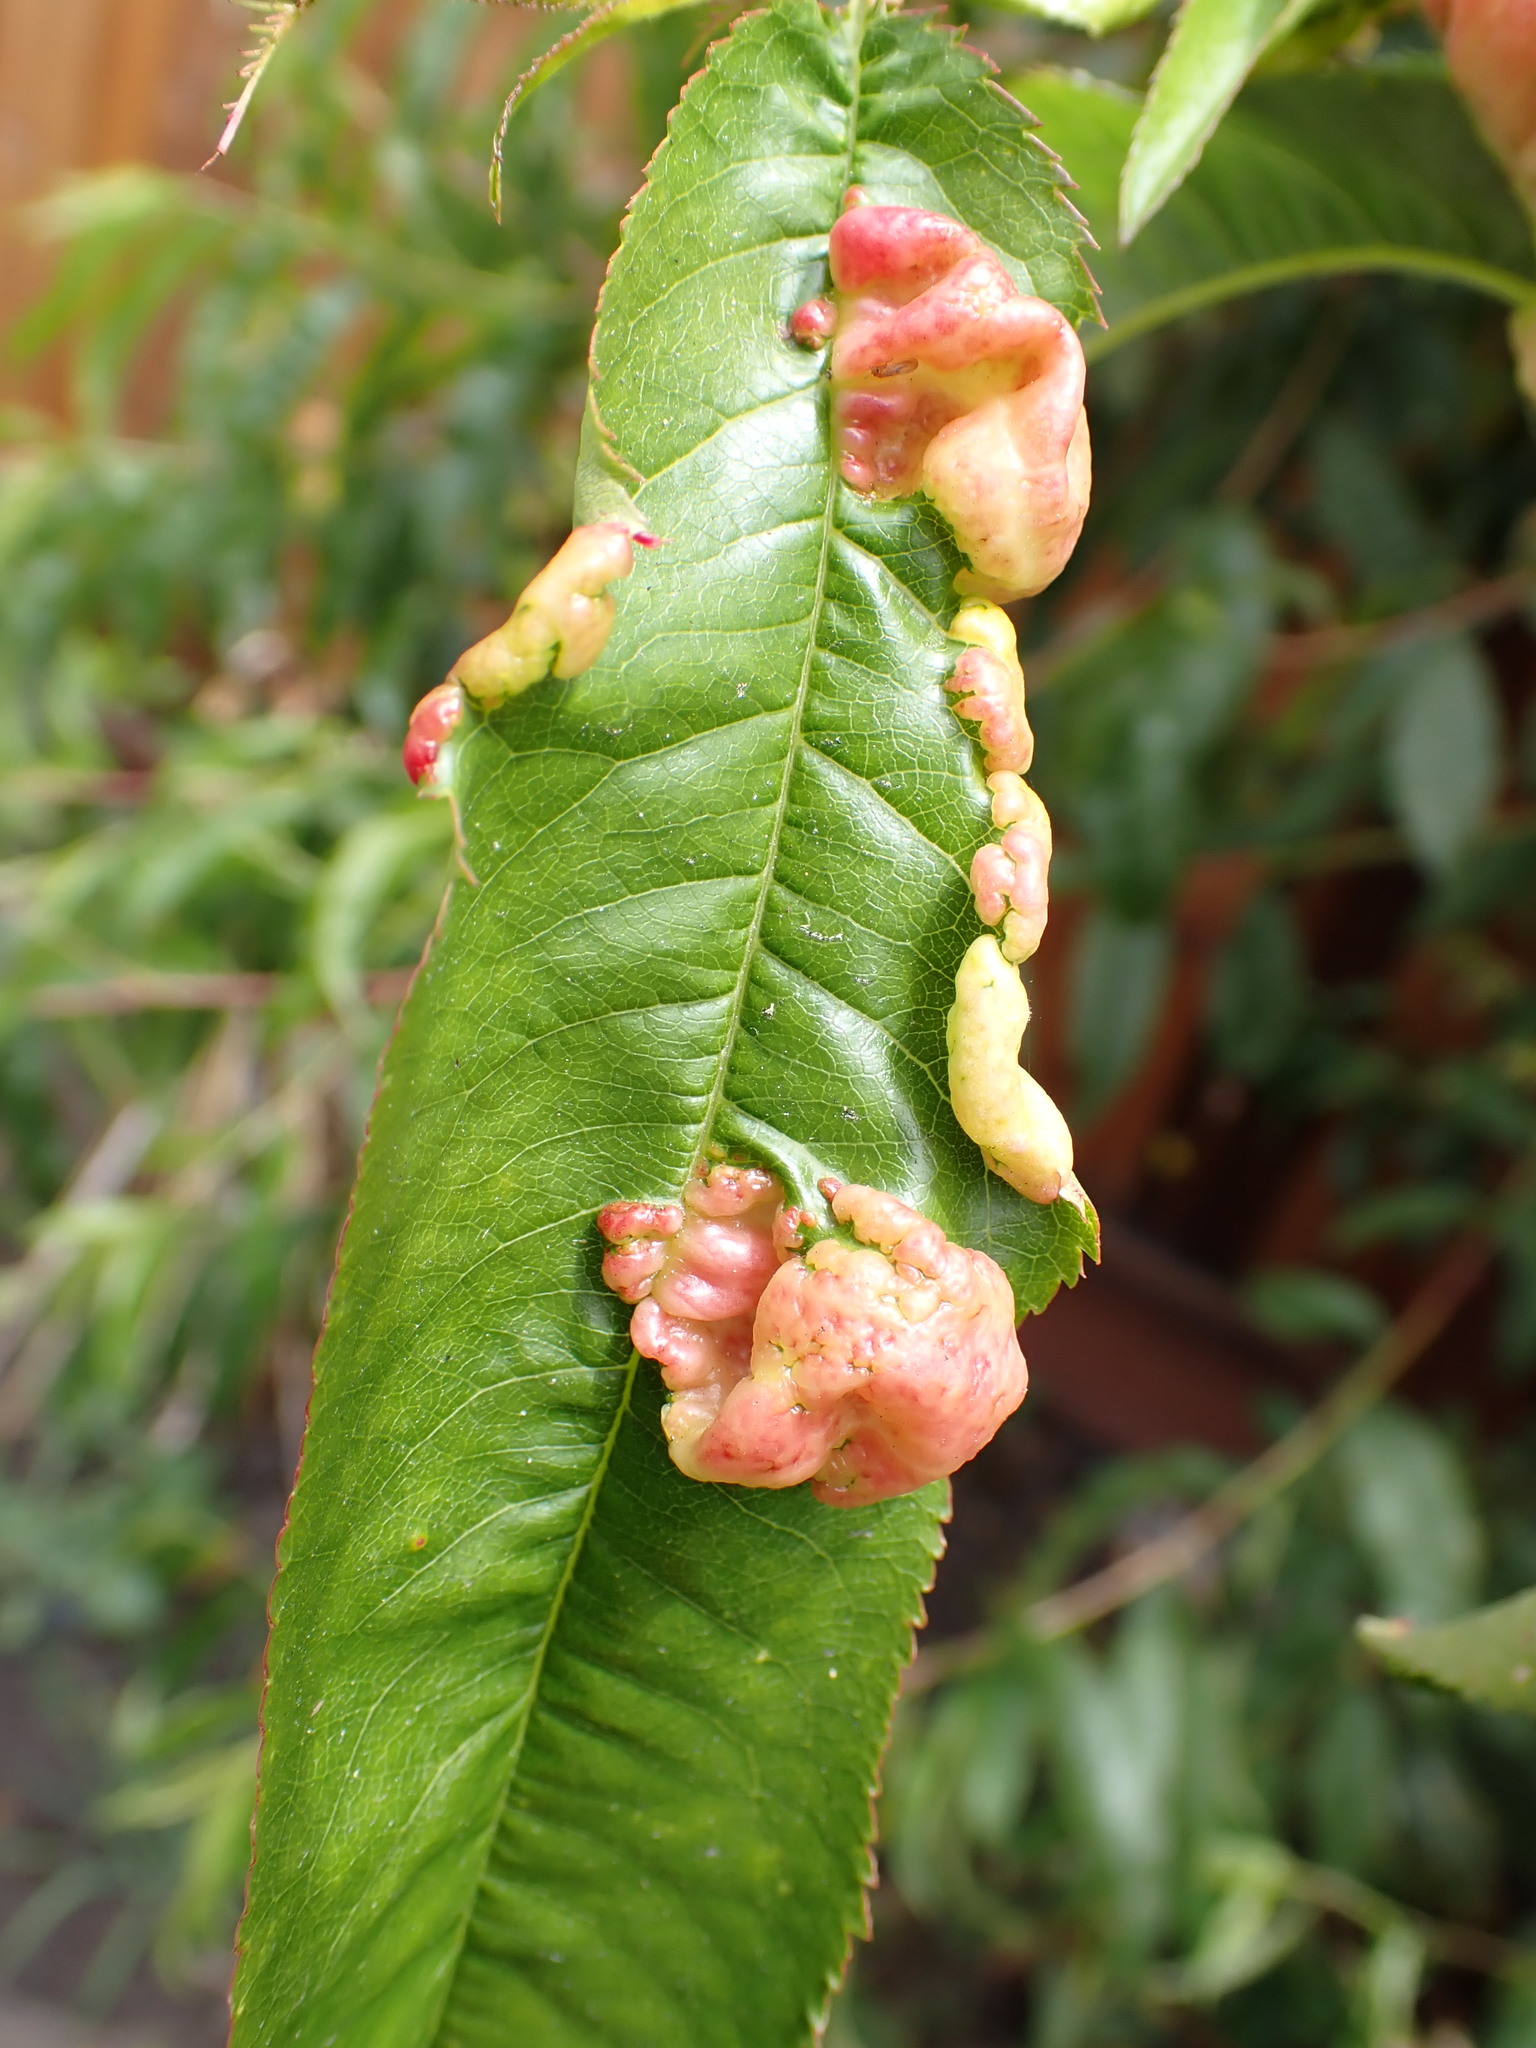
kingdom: Fungi
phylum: Ascomycota
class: Taphrinomycetes
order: Taphrinales
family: Taphrinaceae
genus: Taphrina
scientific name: Taphrina deformans
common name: Peach leaf curl
